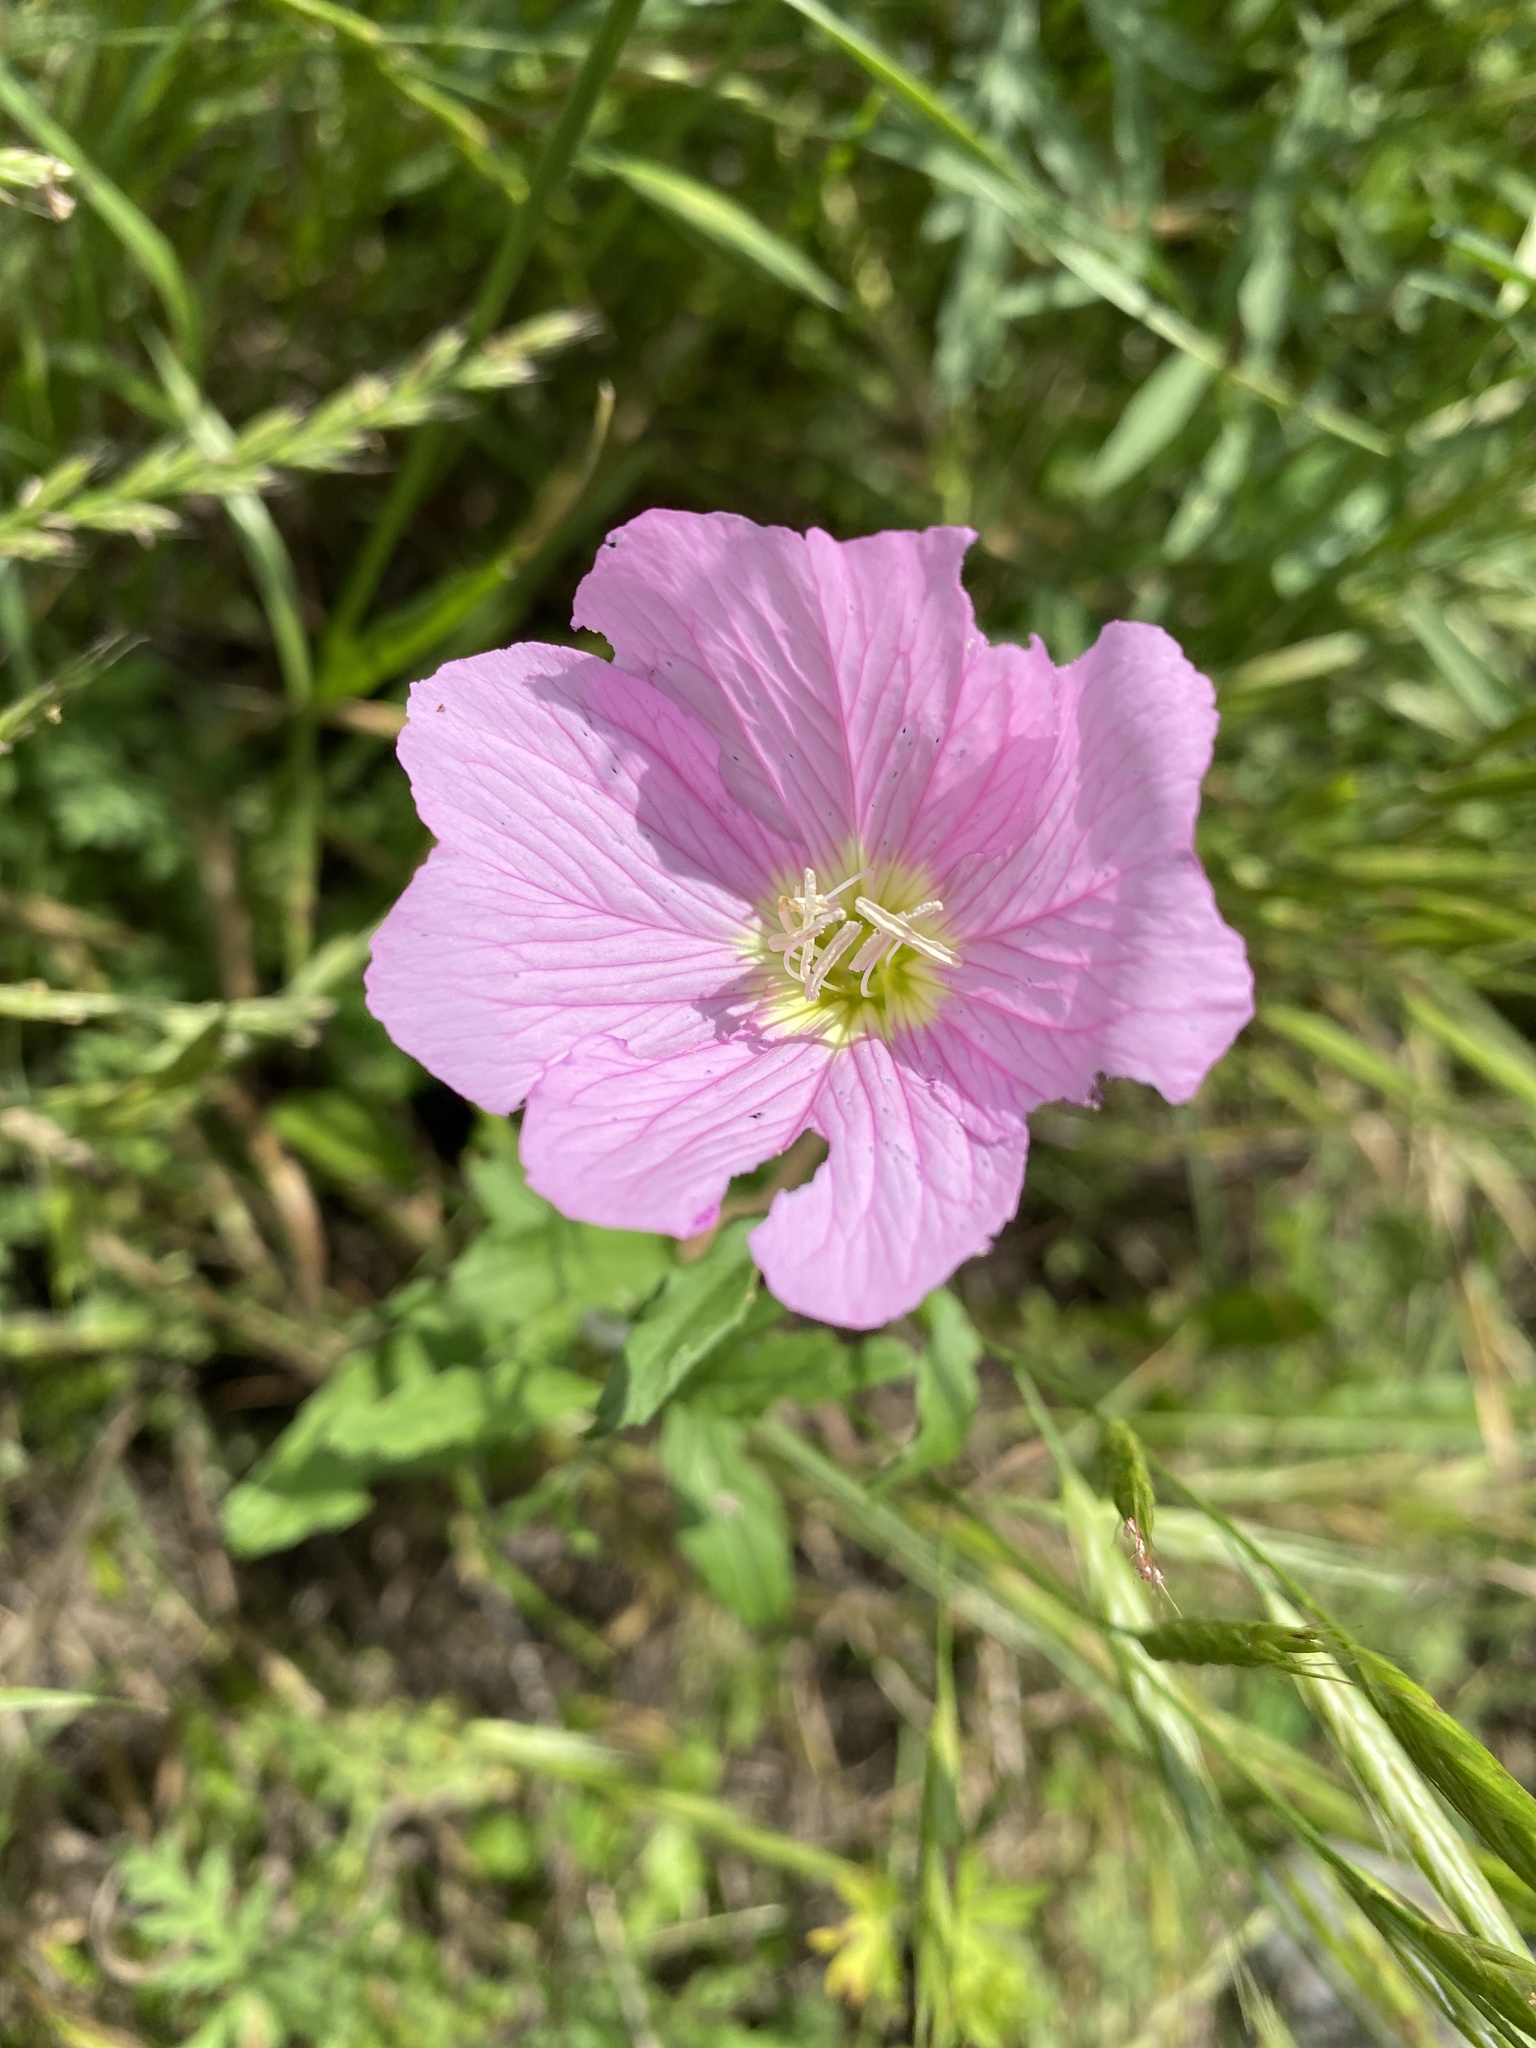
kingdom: Plantae
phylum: Tracheophyta
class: Magnoliopsida
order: Myrtales
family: Onagraceae
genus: Oenothera
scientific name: Oenothera speciosa
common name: White evening-primrose
